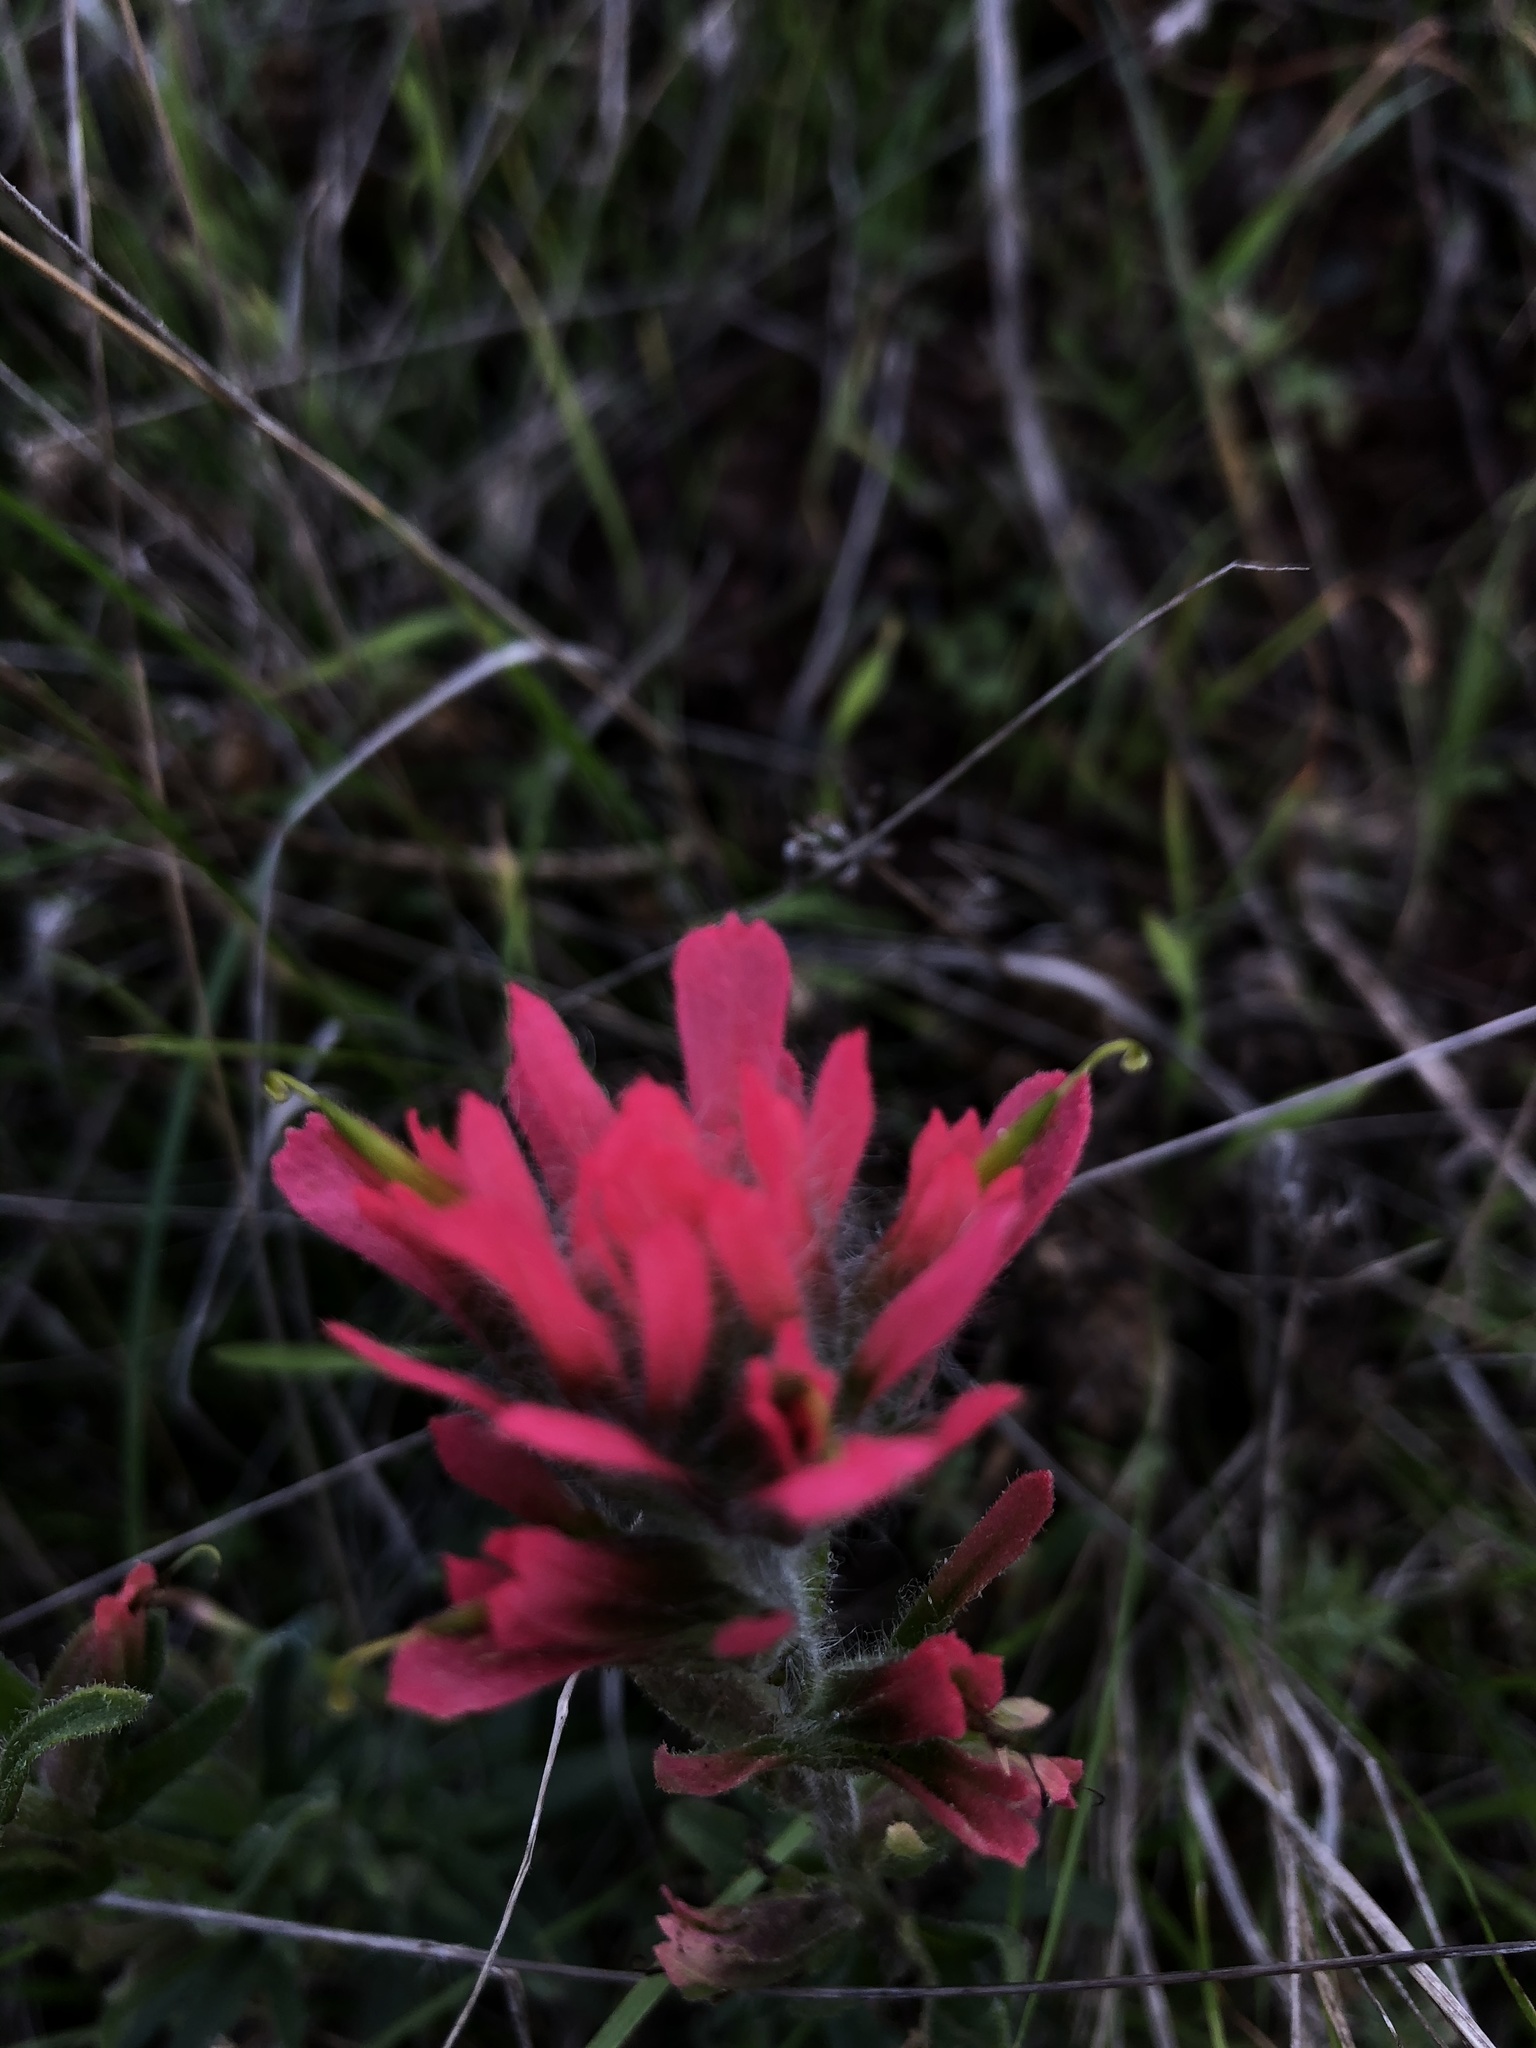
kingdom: Plantae
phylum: Tracheophyta
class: Magnoliopsida
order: Lamiales
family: Orobanchaceae
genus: Castilleja
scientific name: Castilleja affinis
